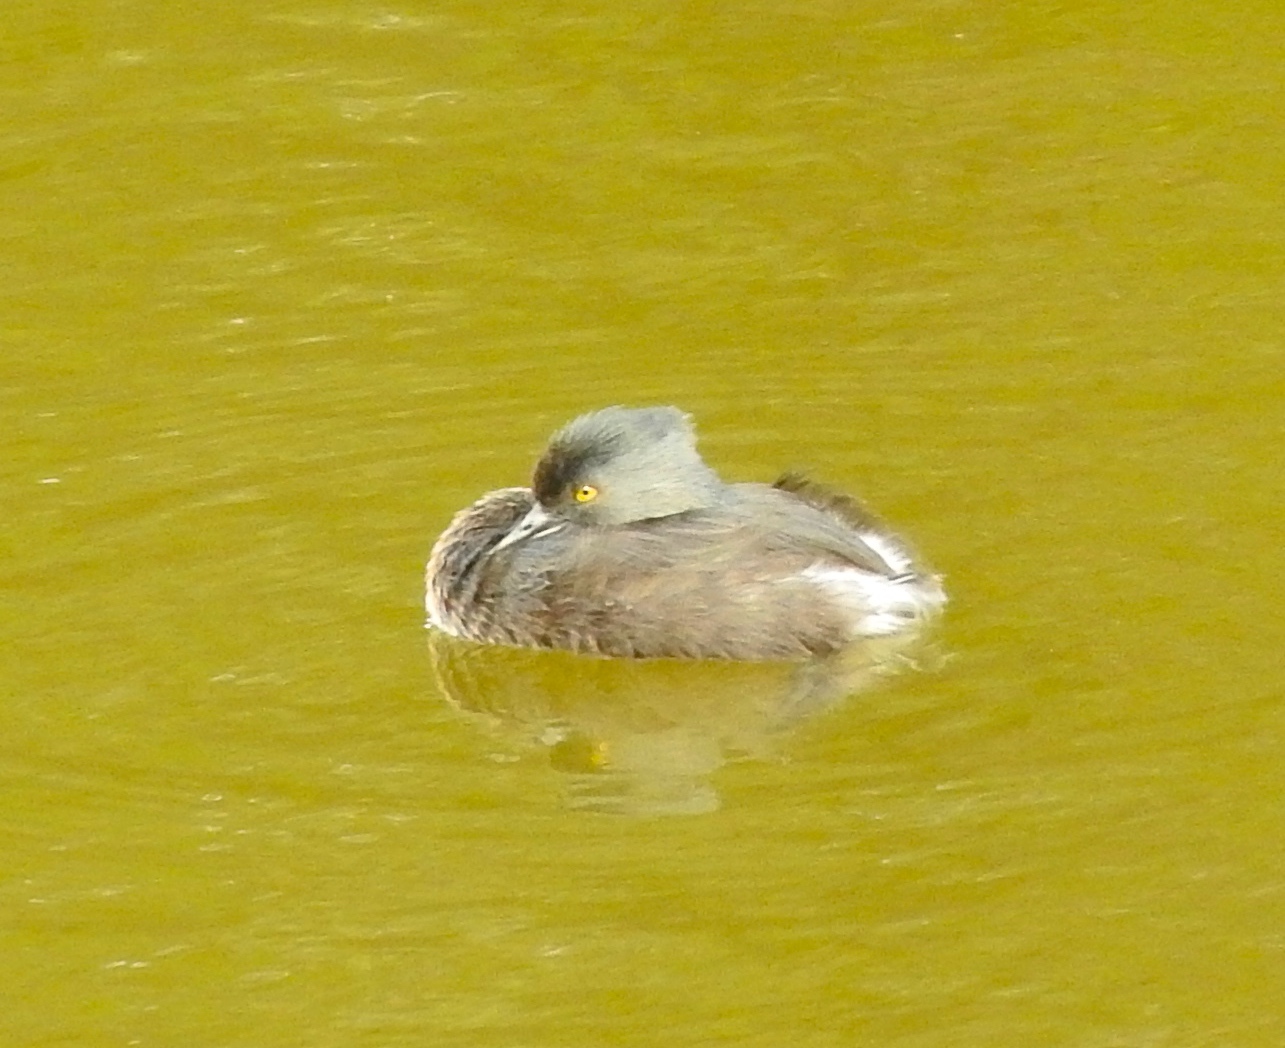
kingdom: Animalia
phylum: Chordata
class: Aves
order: Podicipediformes
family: Podicipedidae
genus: Tachybaptus
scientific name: Tachybaptus dominicus
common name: Least grebe
